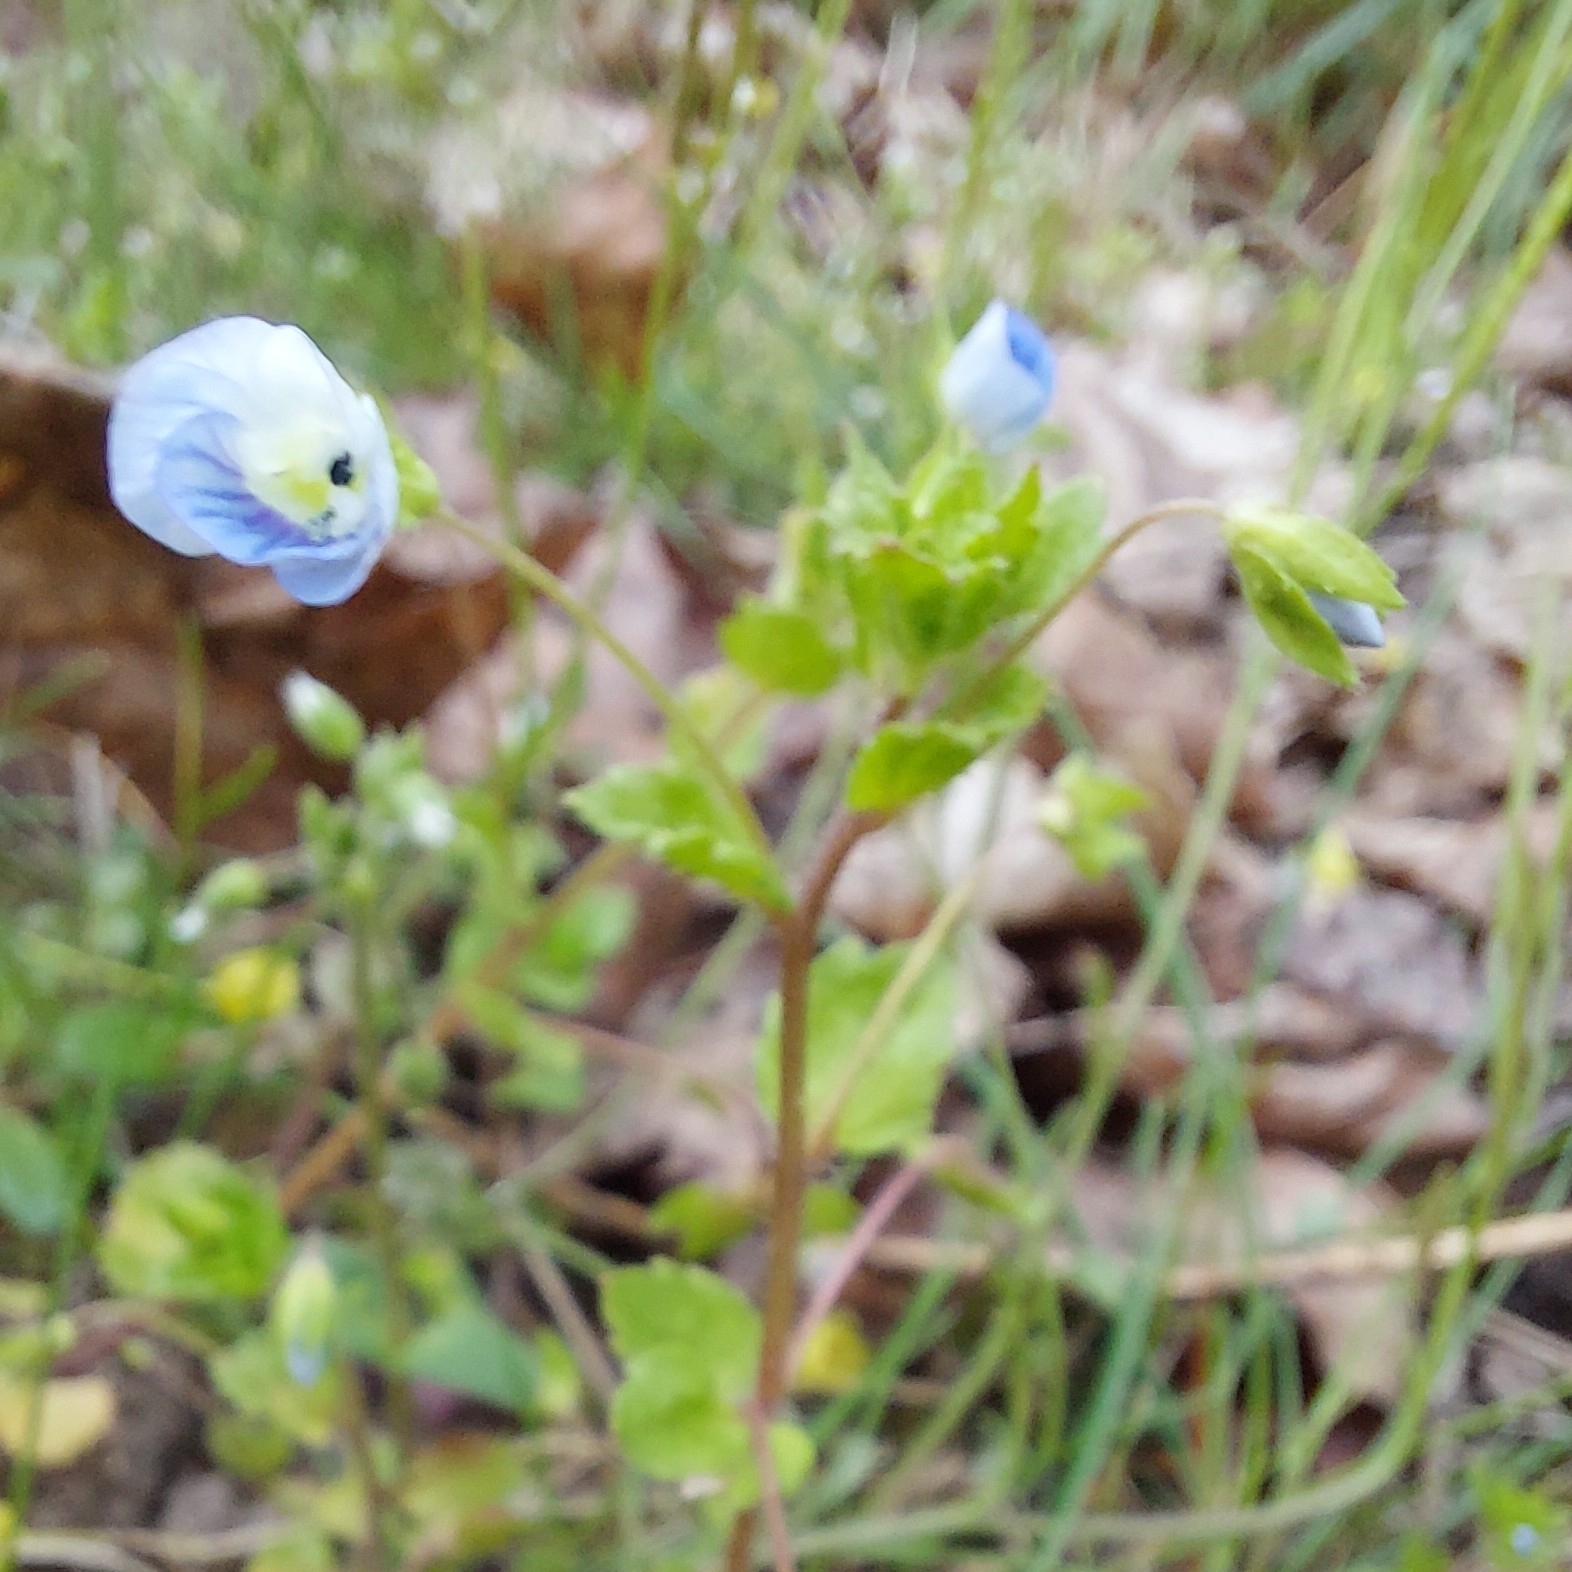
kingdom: Plantae
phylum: Tracheophyta
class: Magnoliopsida
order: Lamiales
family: Plantaginaceae
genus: Veronica
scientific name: Veronica persica
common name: Common field-speedwell
